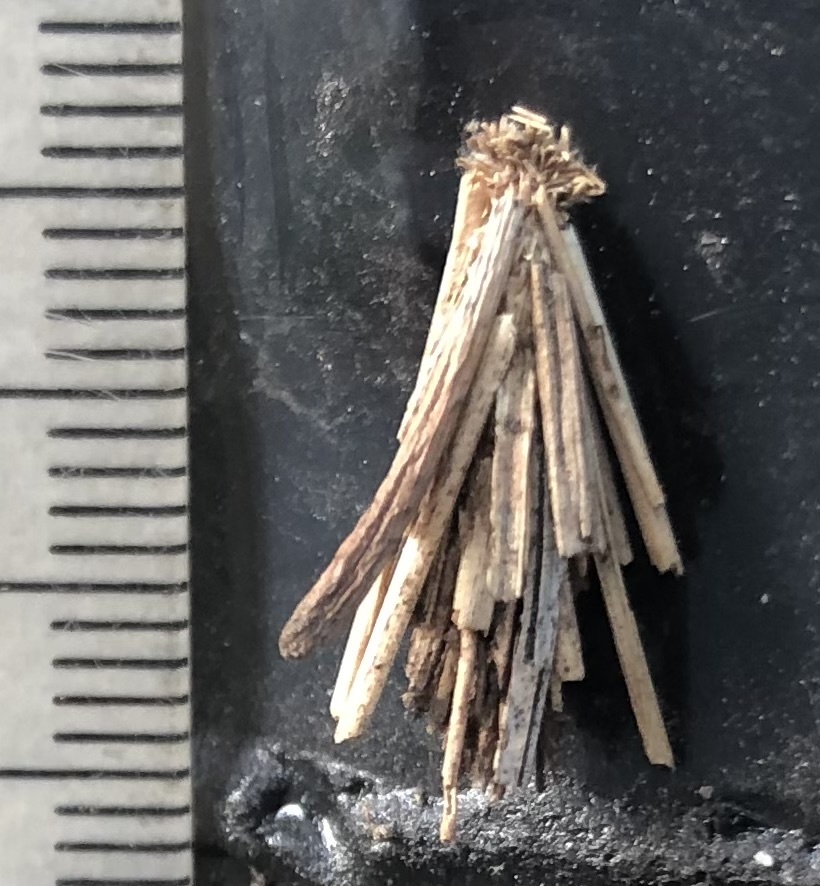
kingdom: Animalia
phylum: Arthropoda
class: Insecta
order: Lepidoptera
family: Psychidae
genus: Astala
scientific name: Astala confederata
